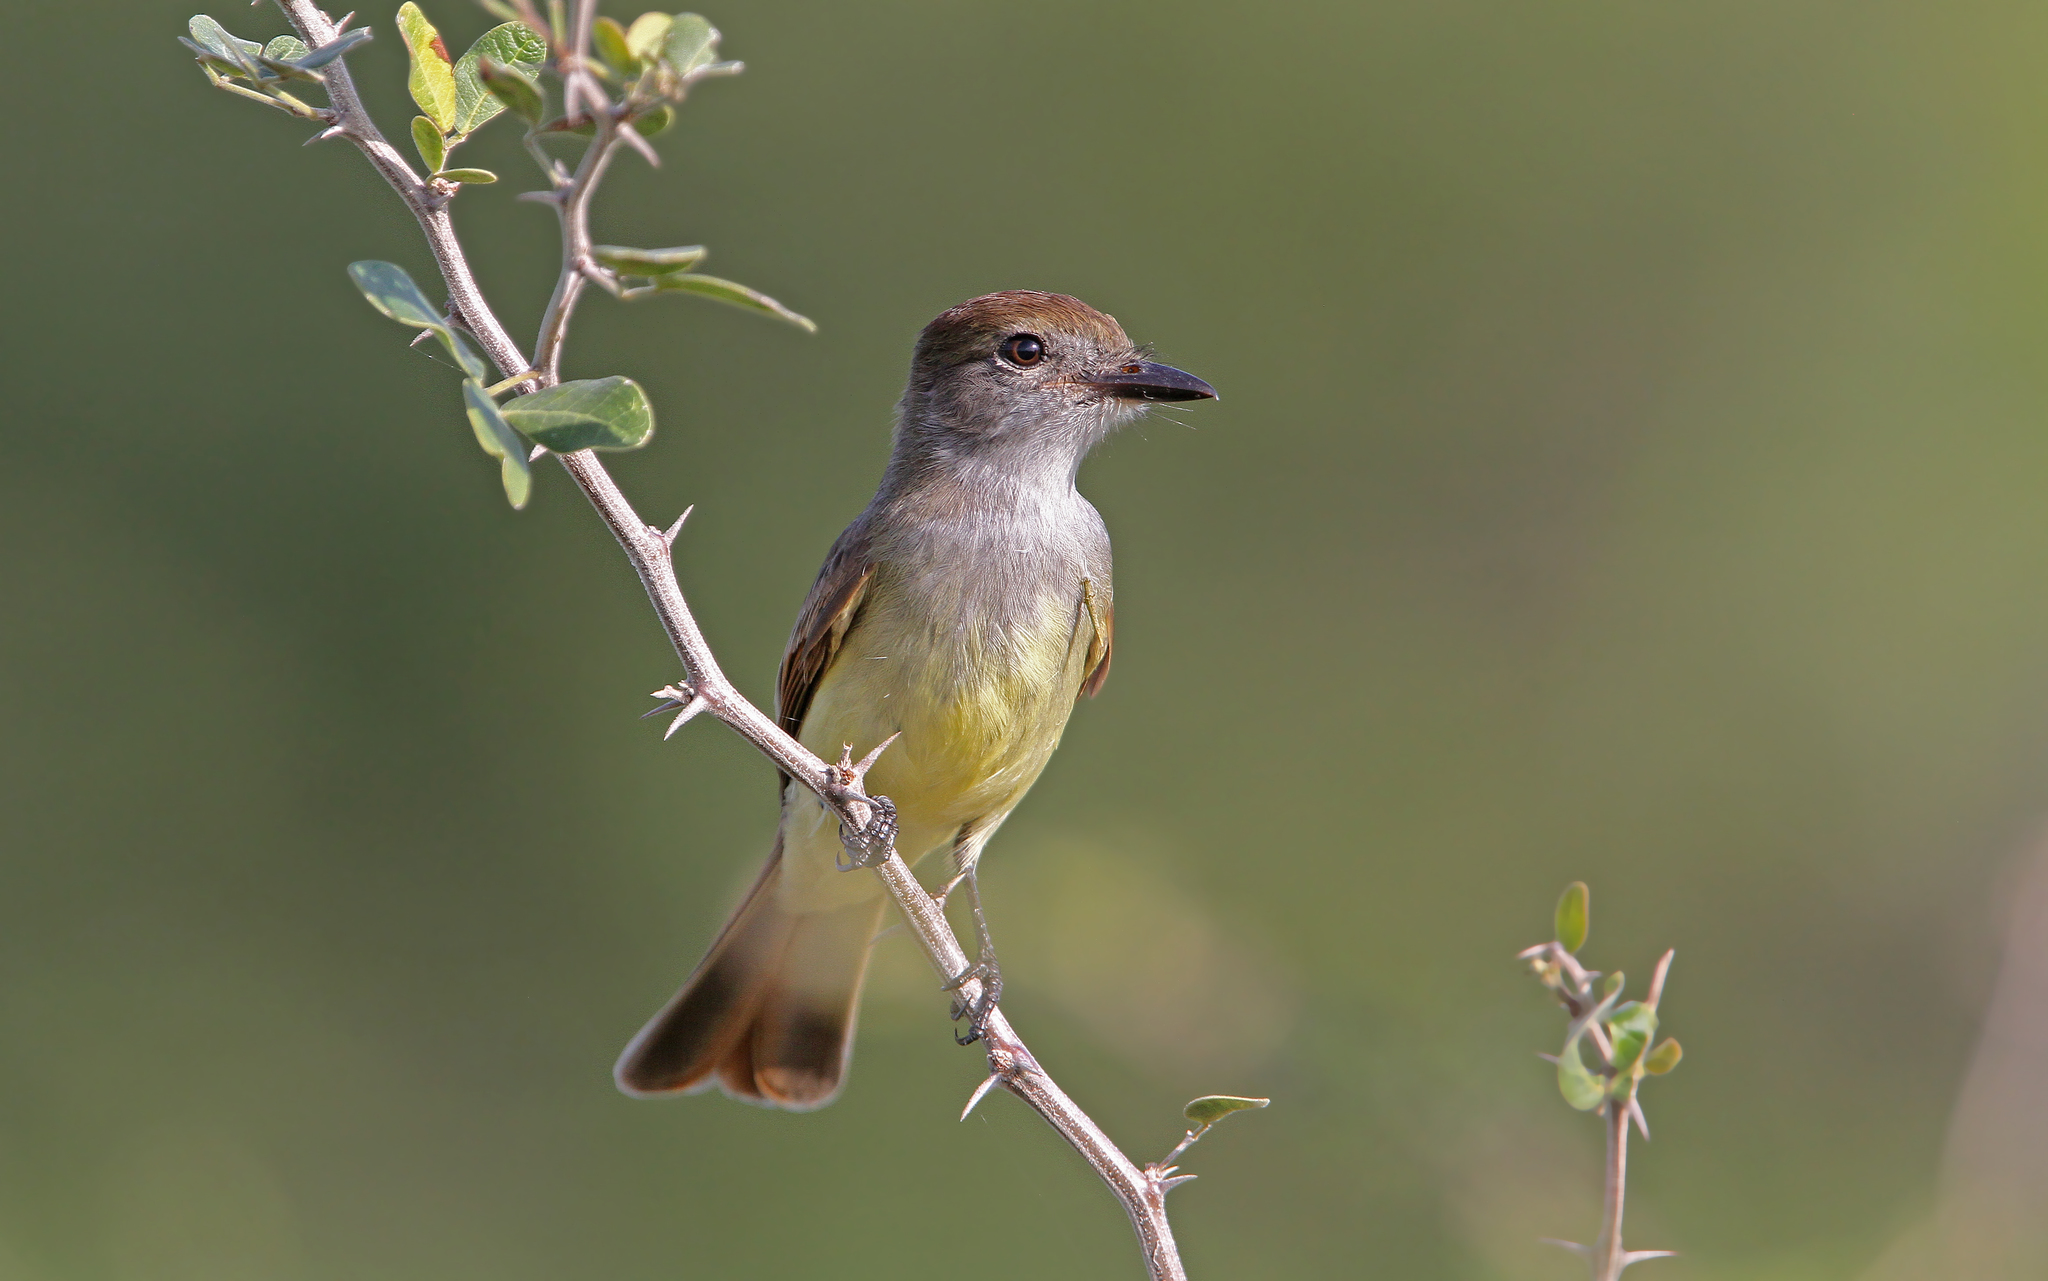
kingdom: Animalia
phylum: Chordata
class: Aves
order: Passeriformes
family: Tyrannidae
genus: Myiarchus
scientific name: Myiarchus yucatanensis
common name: Yucatan flycatcher
